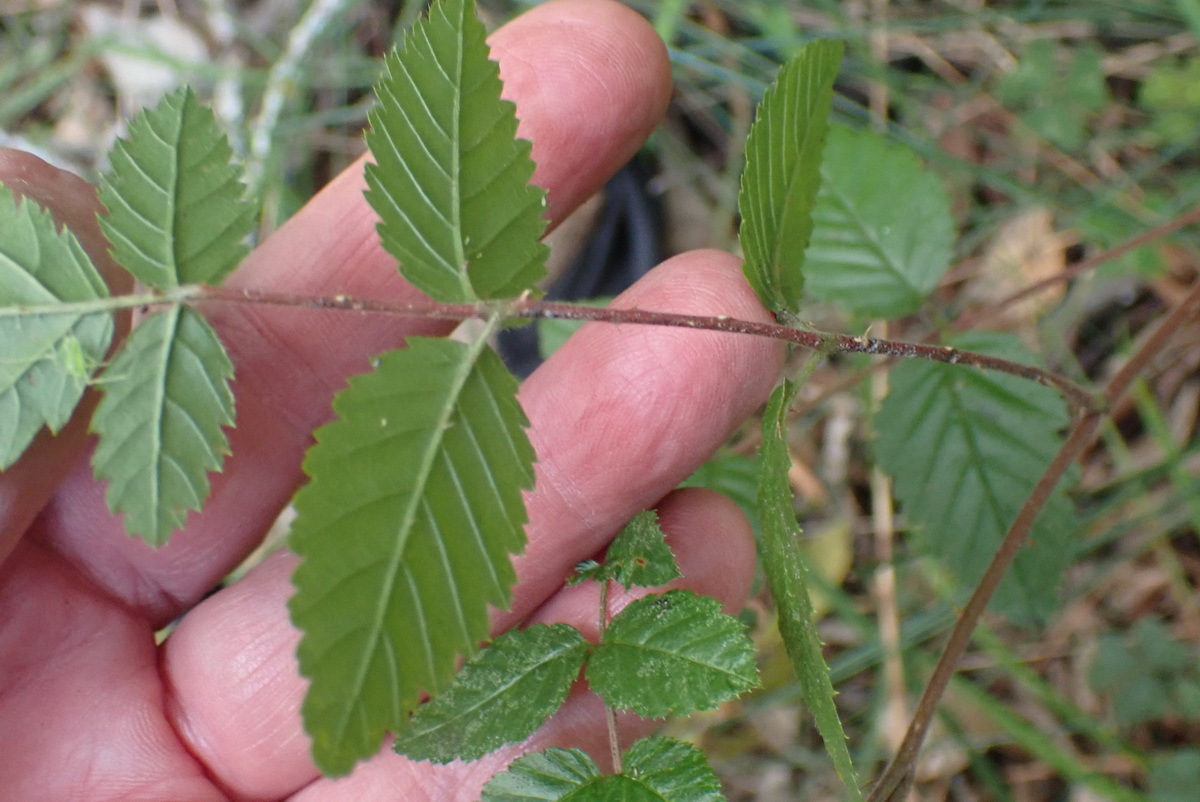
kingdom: Plantae
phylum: Tracheophyta
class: Magnoliopsida
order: Rosales
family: Rosaceae
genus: Rubus
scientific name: Rubus pinnatus
